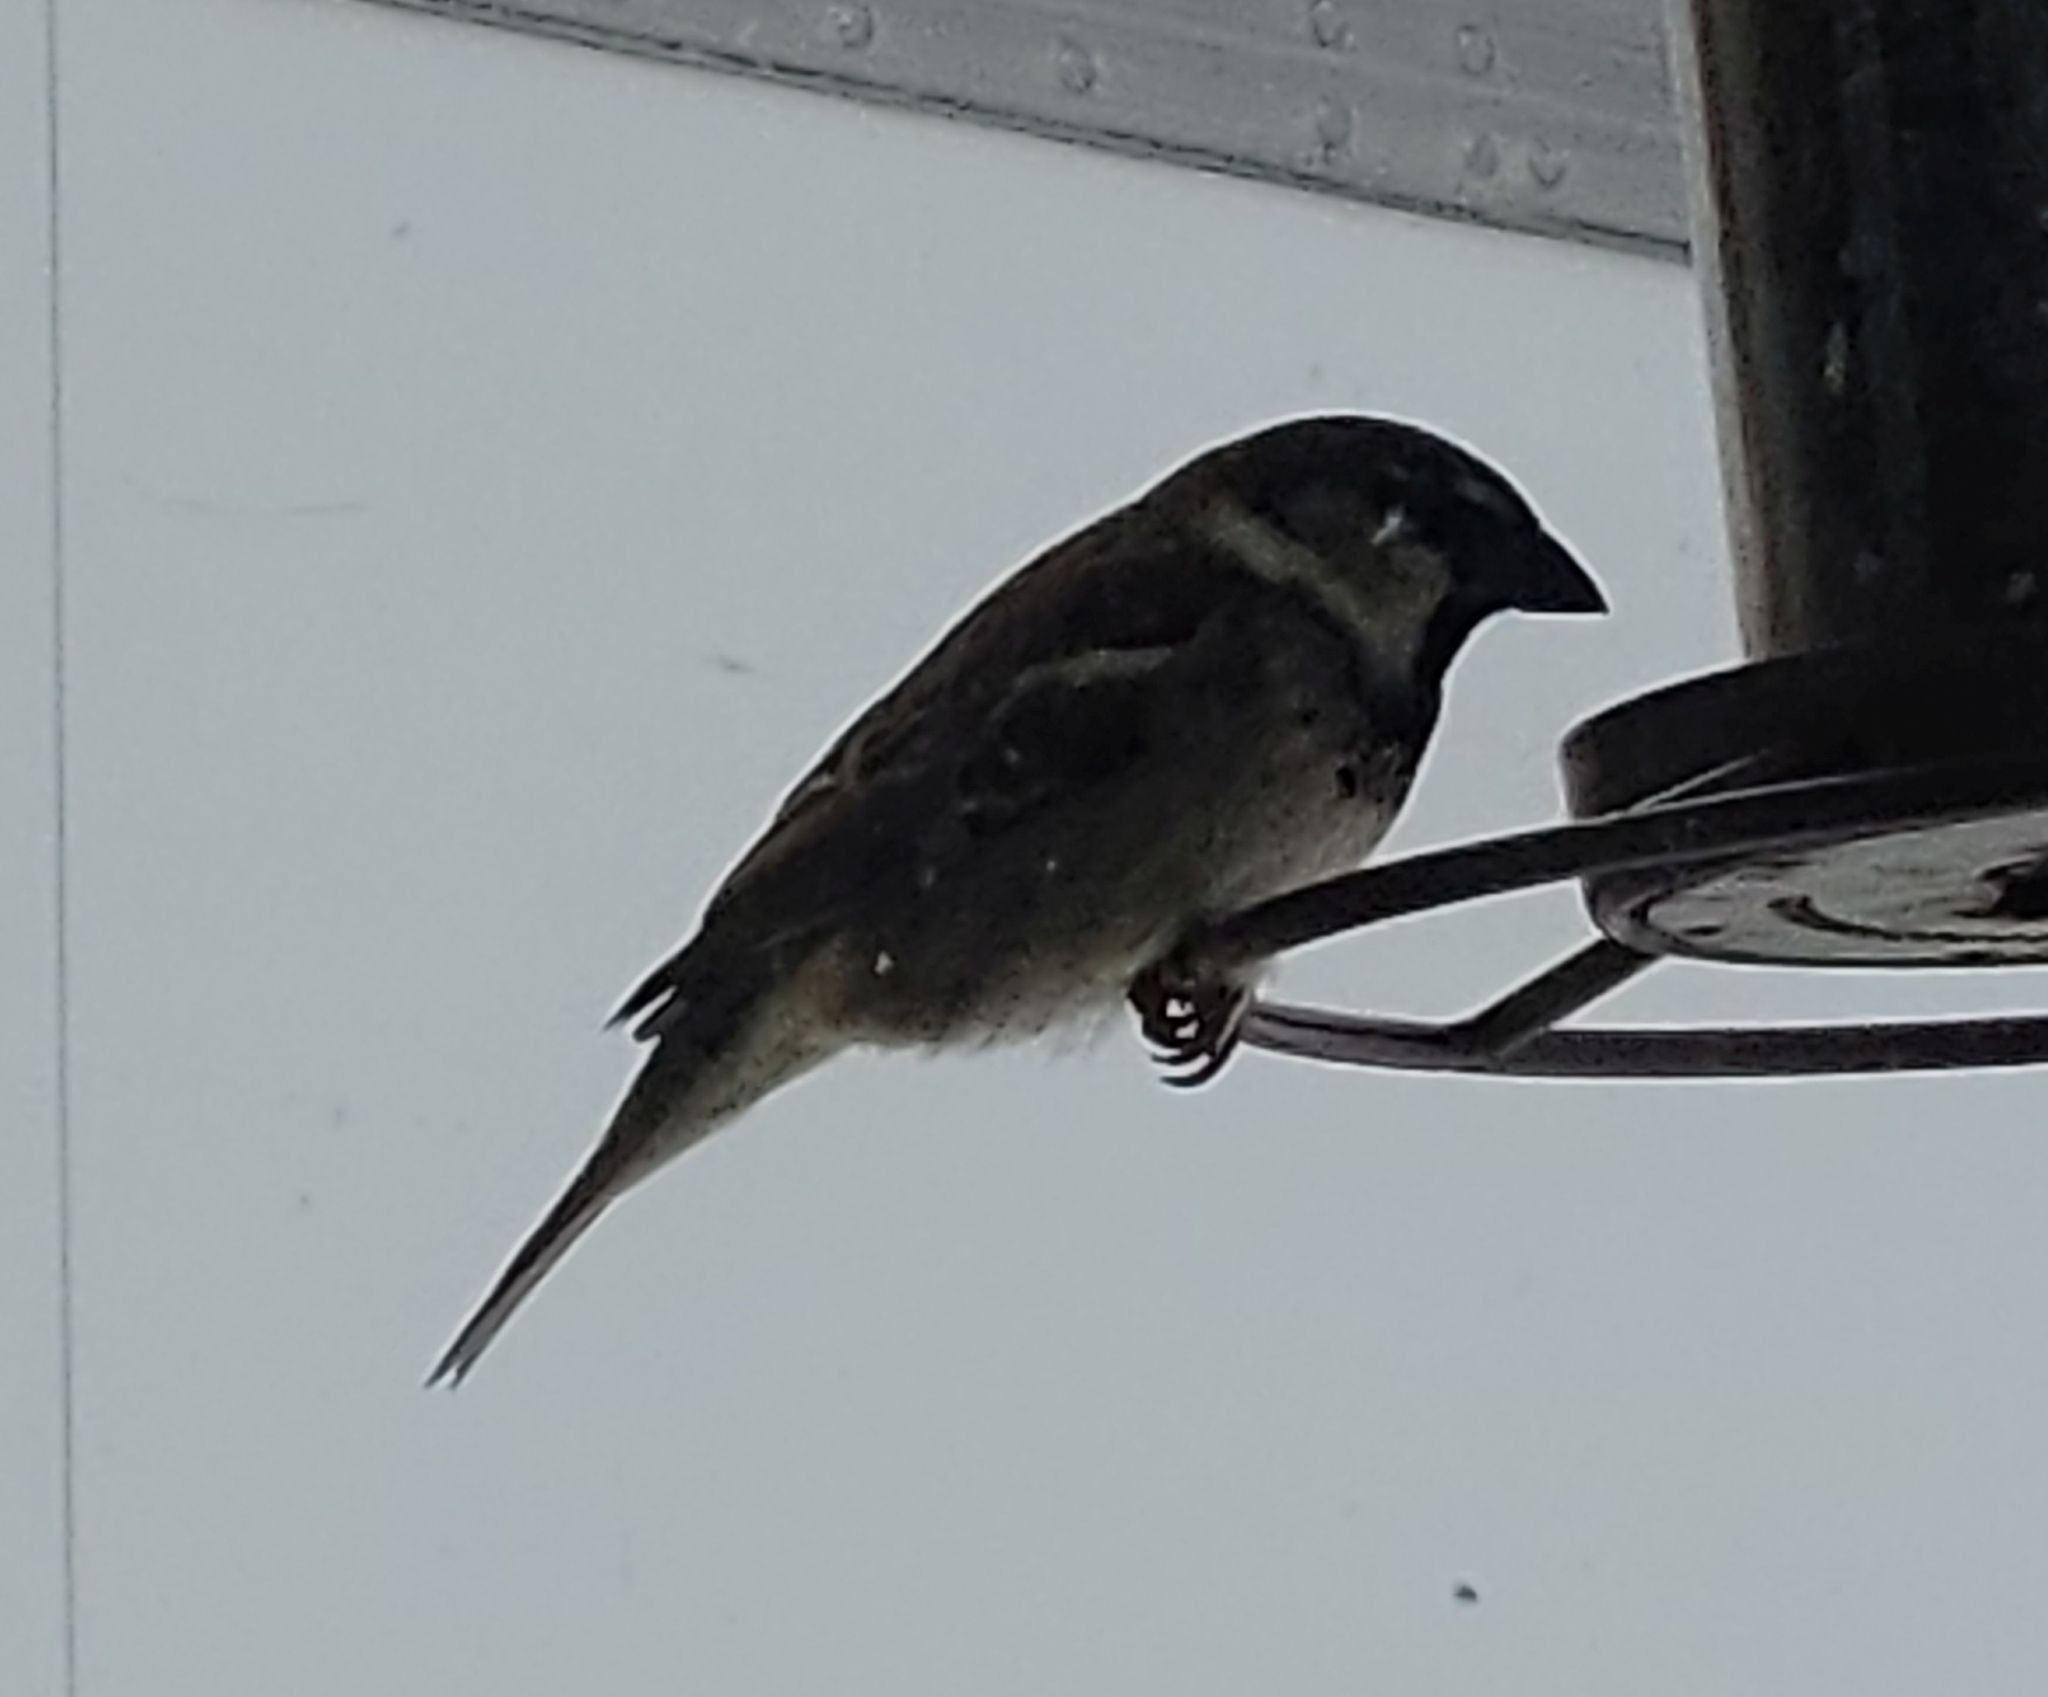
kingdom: Animalia
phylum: Chordata
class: Aves
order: Passeriformes
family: Passeridae
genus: Passer
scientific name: Passer domesticus
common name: House sparrow
